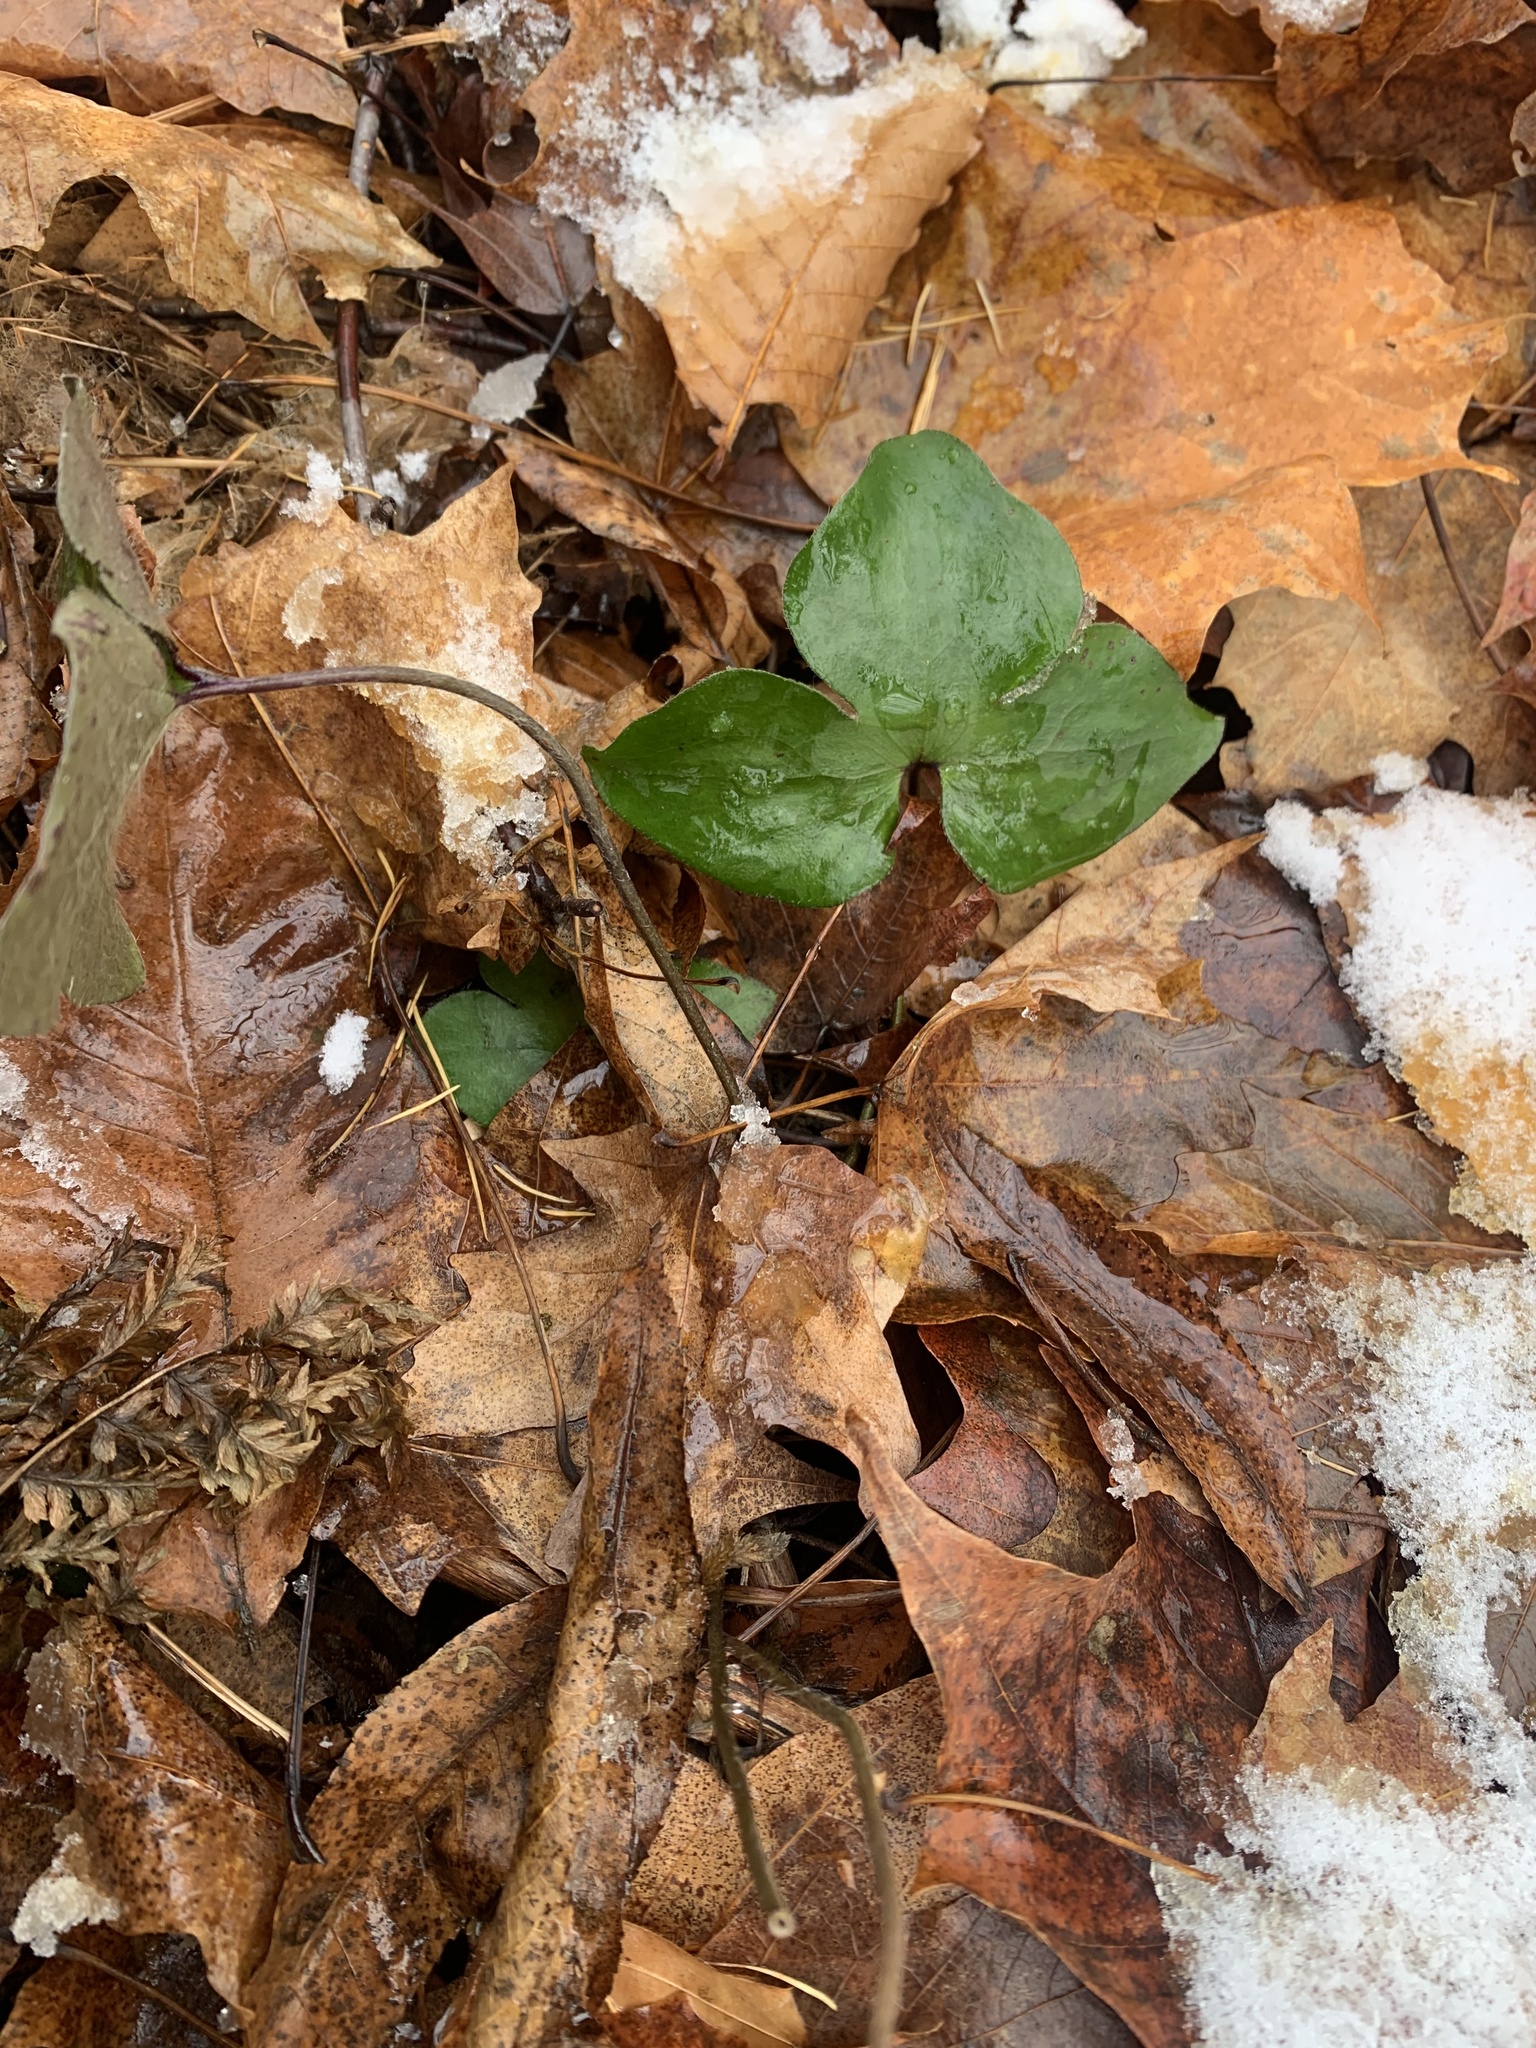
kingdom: Plantae
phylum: Tracheophyta
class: Magnoliopsida
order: Ranunculales
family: Ranunculaceae
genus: Hepatica
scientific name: Hepatica acutiloba
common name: Sharp-lobed hepatica
